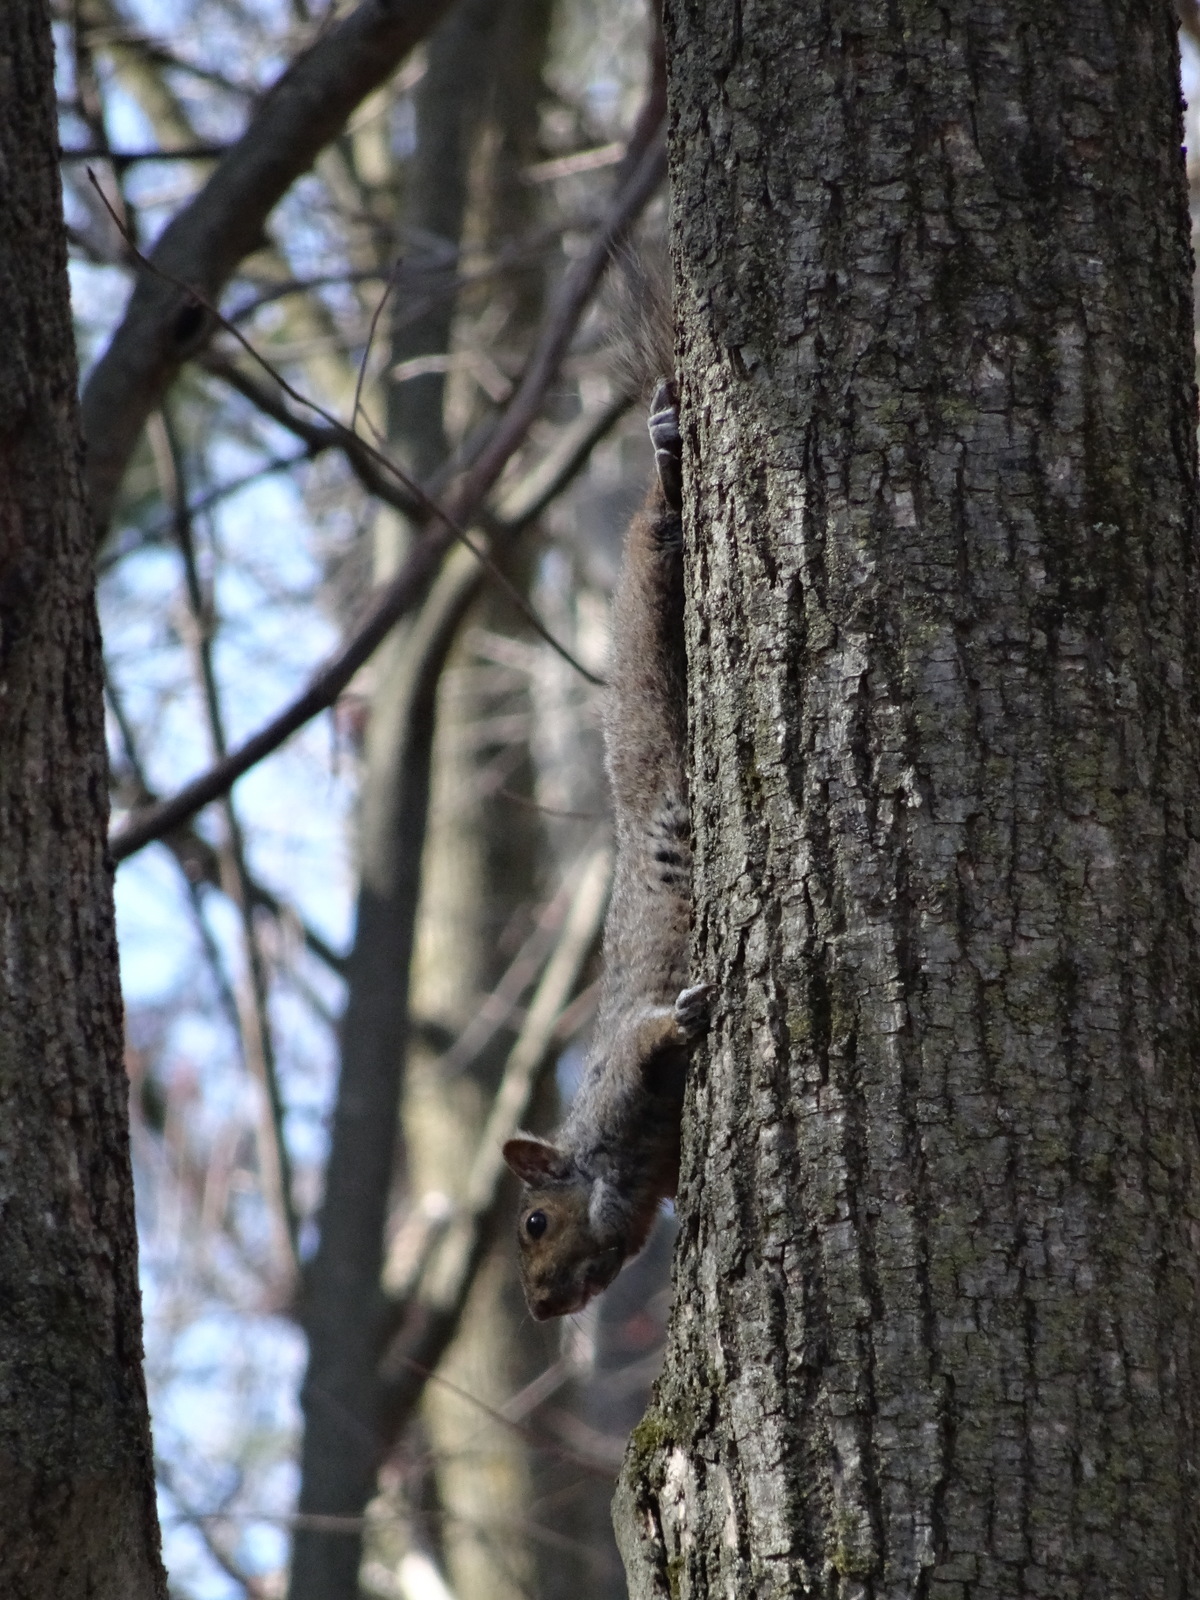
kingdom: Animalia
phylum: Chordata
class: Mammalia
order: Rodentia
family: Sciuridae
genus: Sciurus
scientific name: Sciurus carolinensis
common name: Eastern gray squirrel
